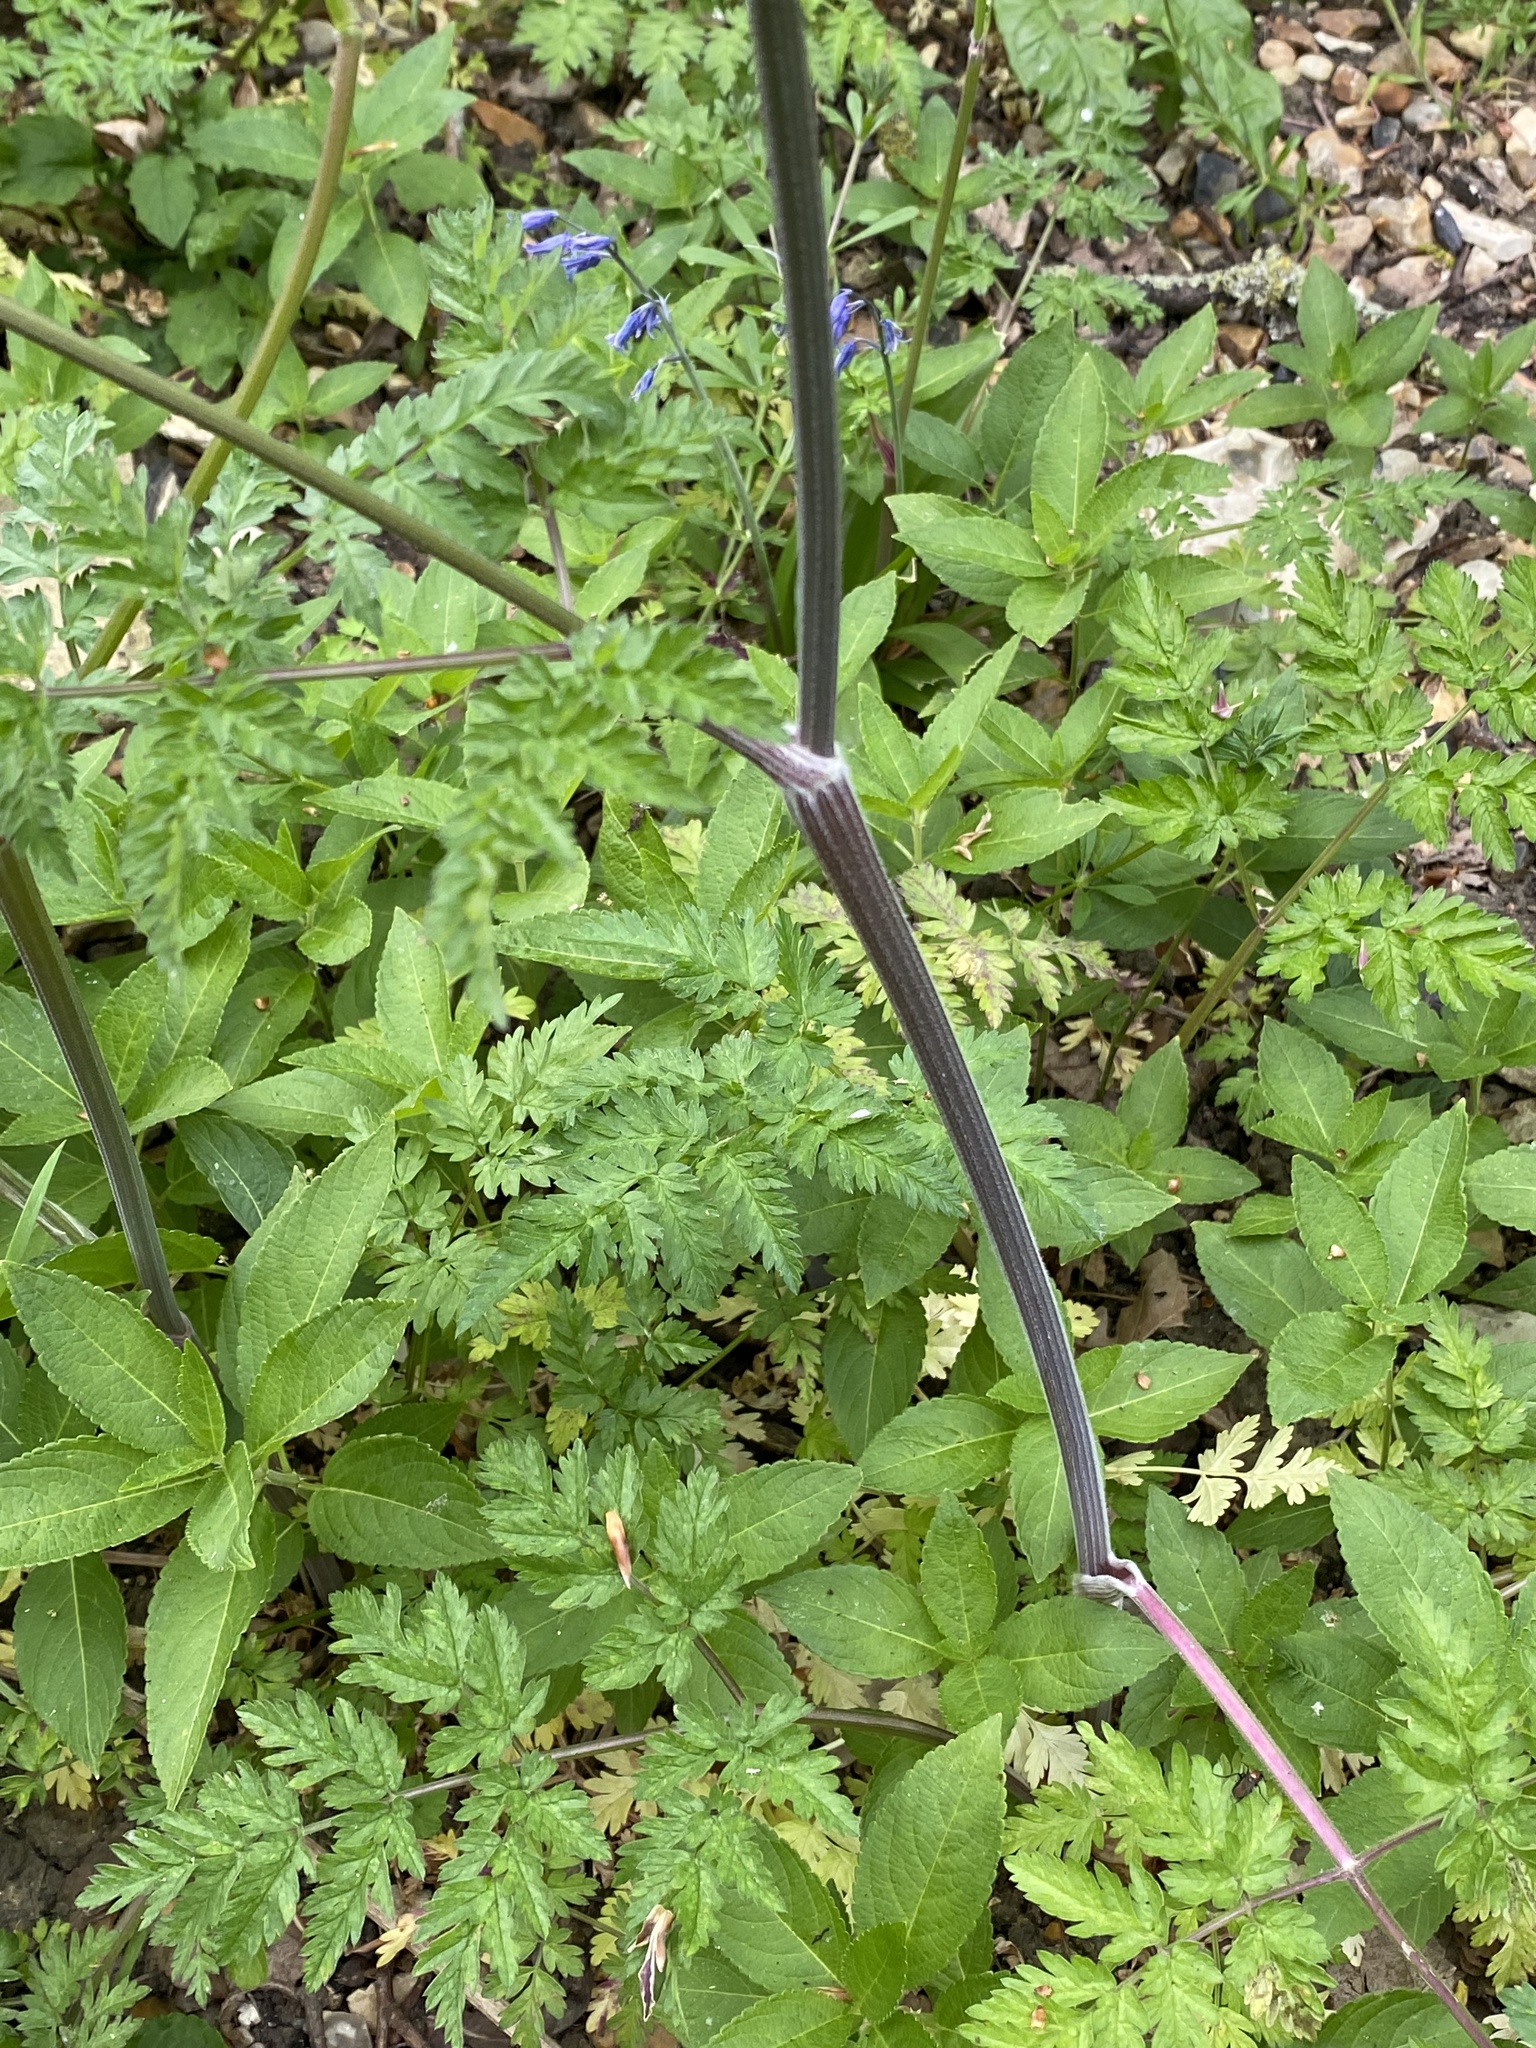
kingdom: Plantae
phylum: Tracheophyta
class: Magnoliopsida
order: Apiales
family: Apiaceae
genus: Anthriscus
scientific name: Anthriscus sylvestris
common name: Cow parsley
